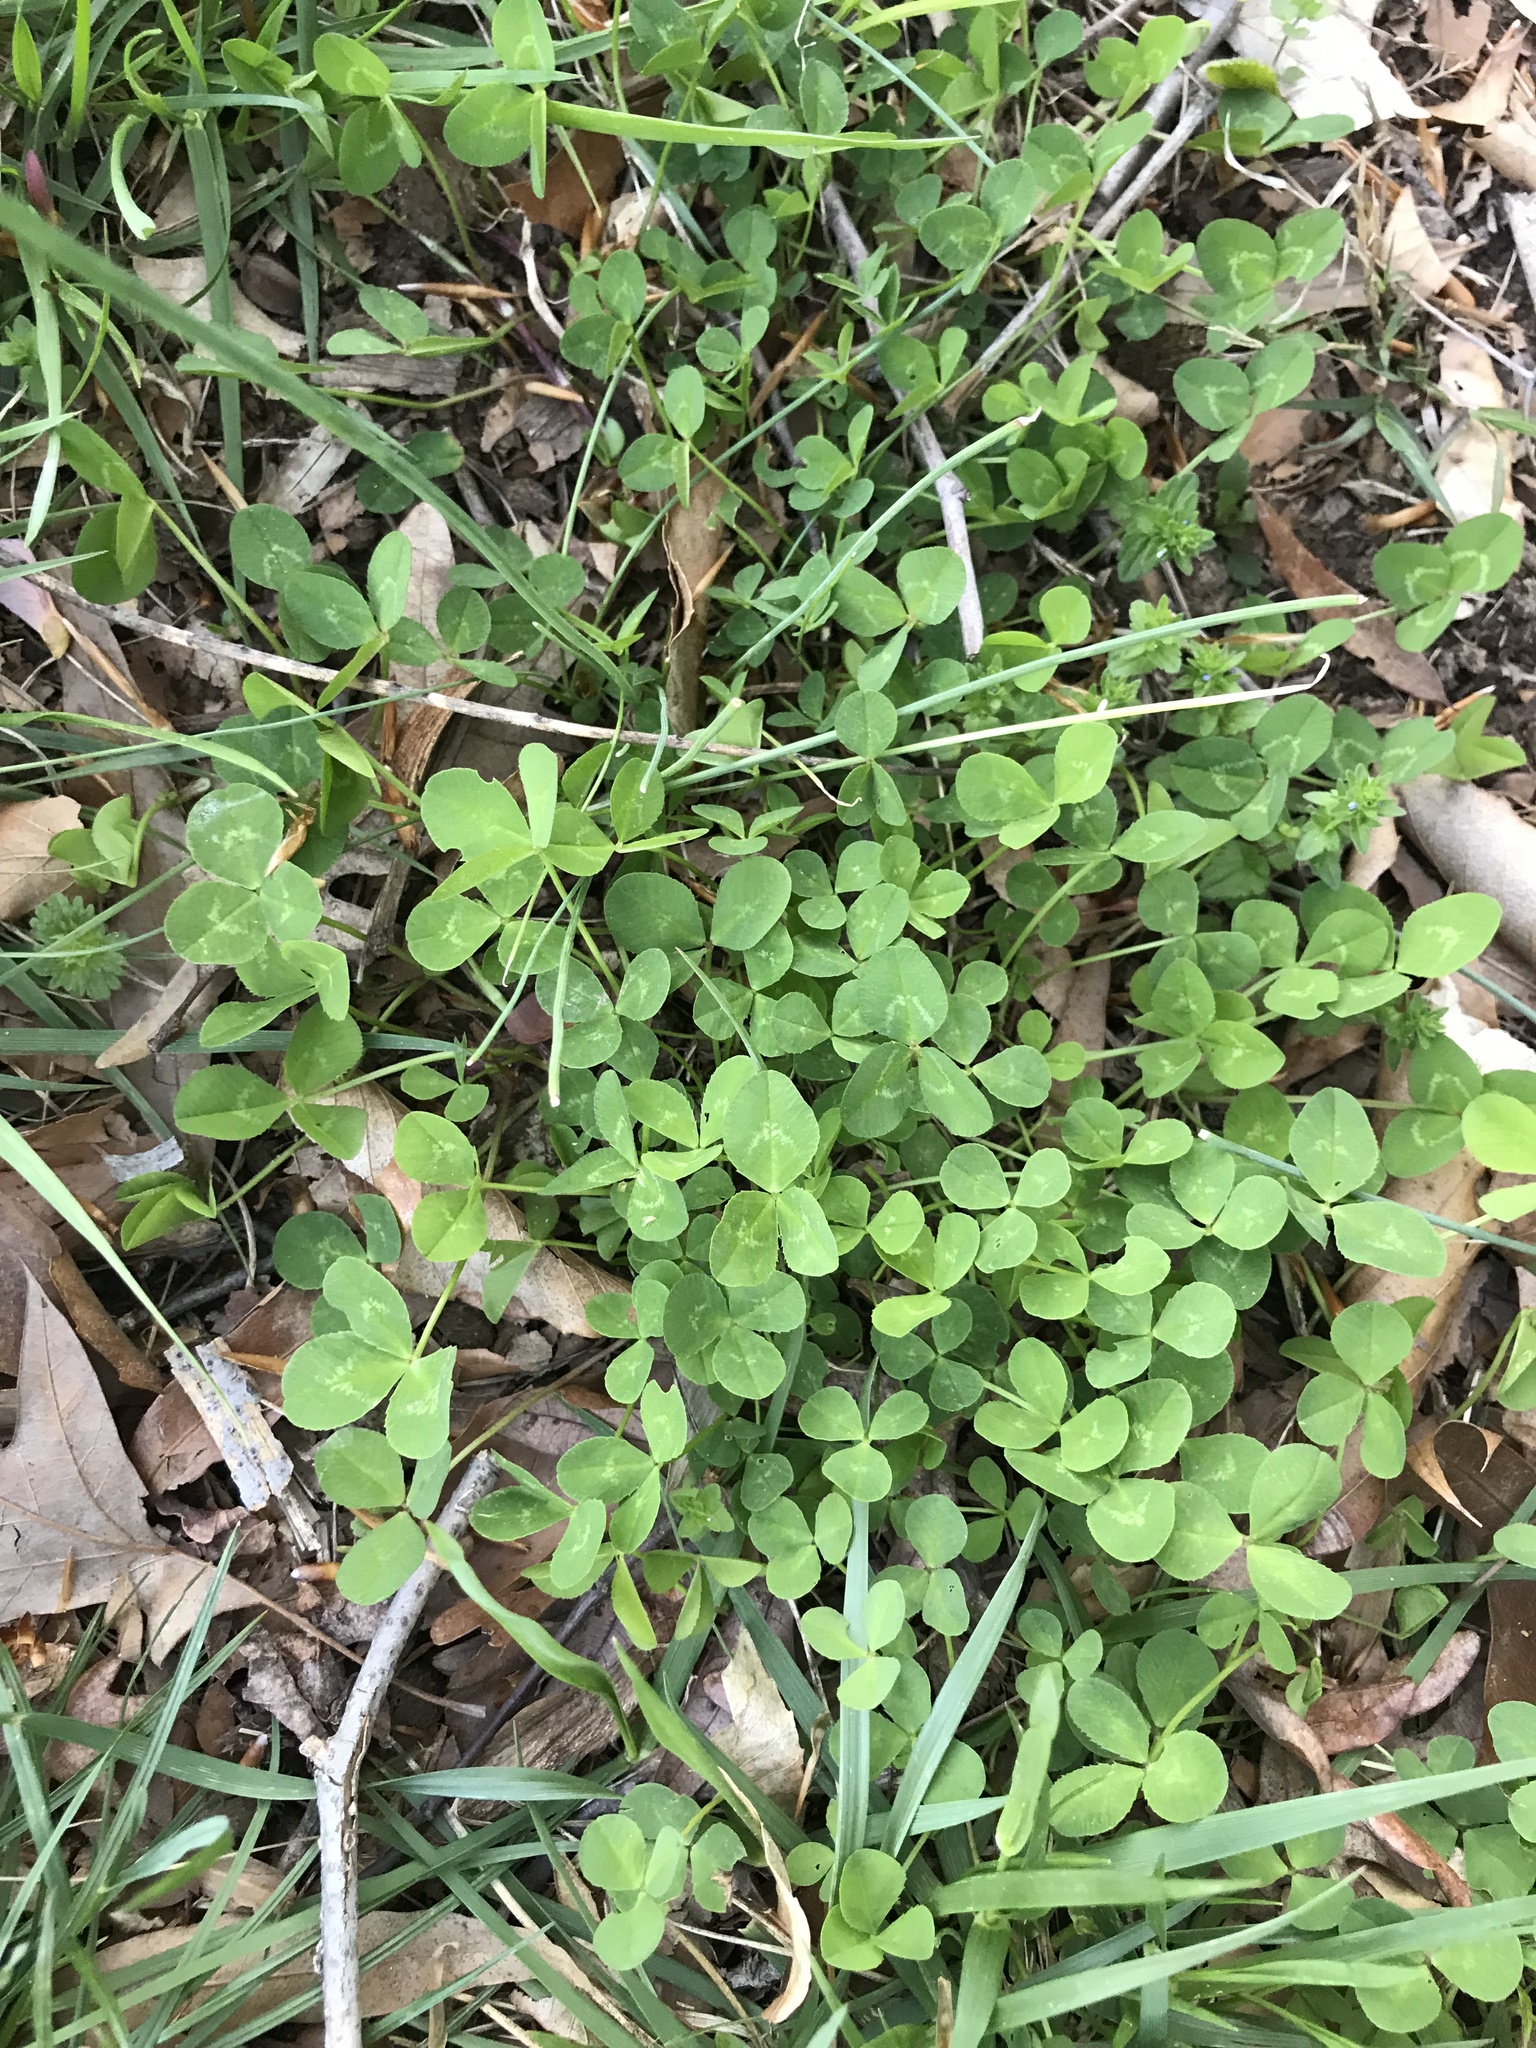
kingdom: Plantae
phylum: Tracheophyta
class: Magnoliopsida
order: Fabales
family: Fabaceae
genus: Trifolium
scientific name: Trifolium repens
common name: White clover
